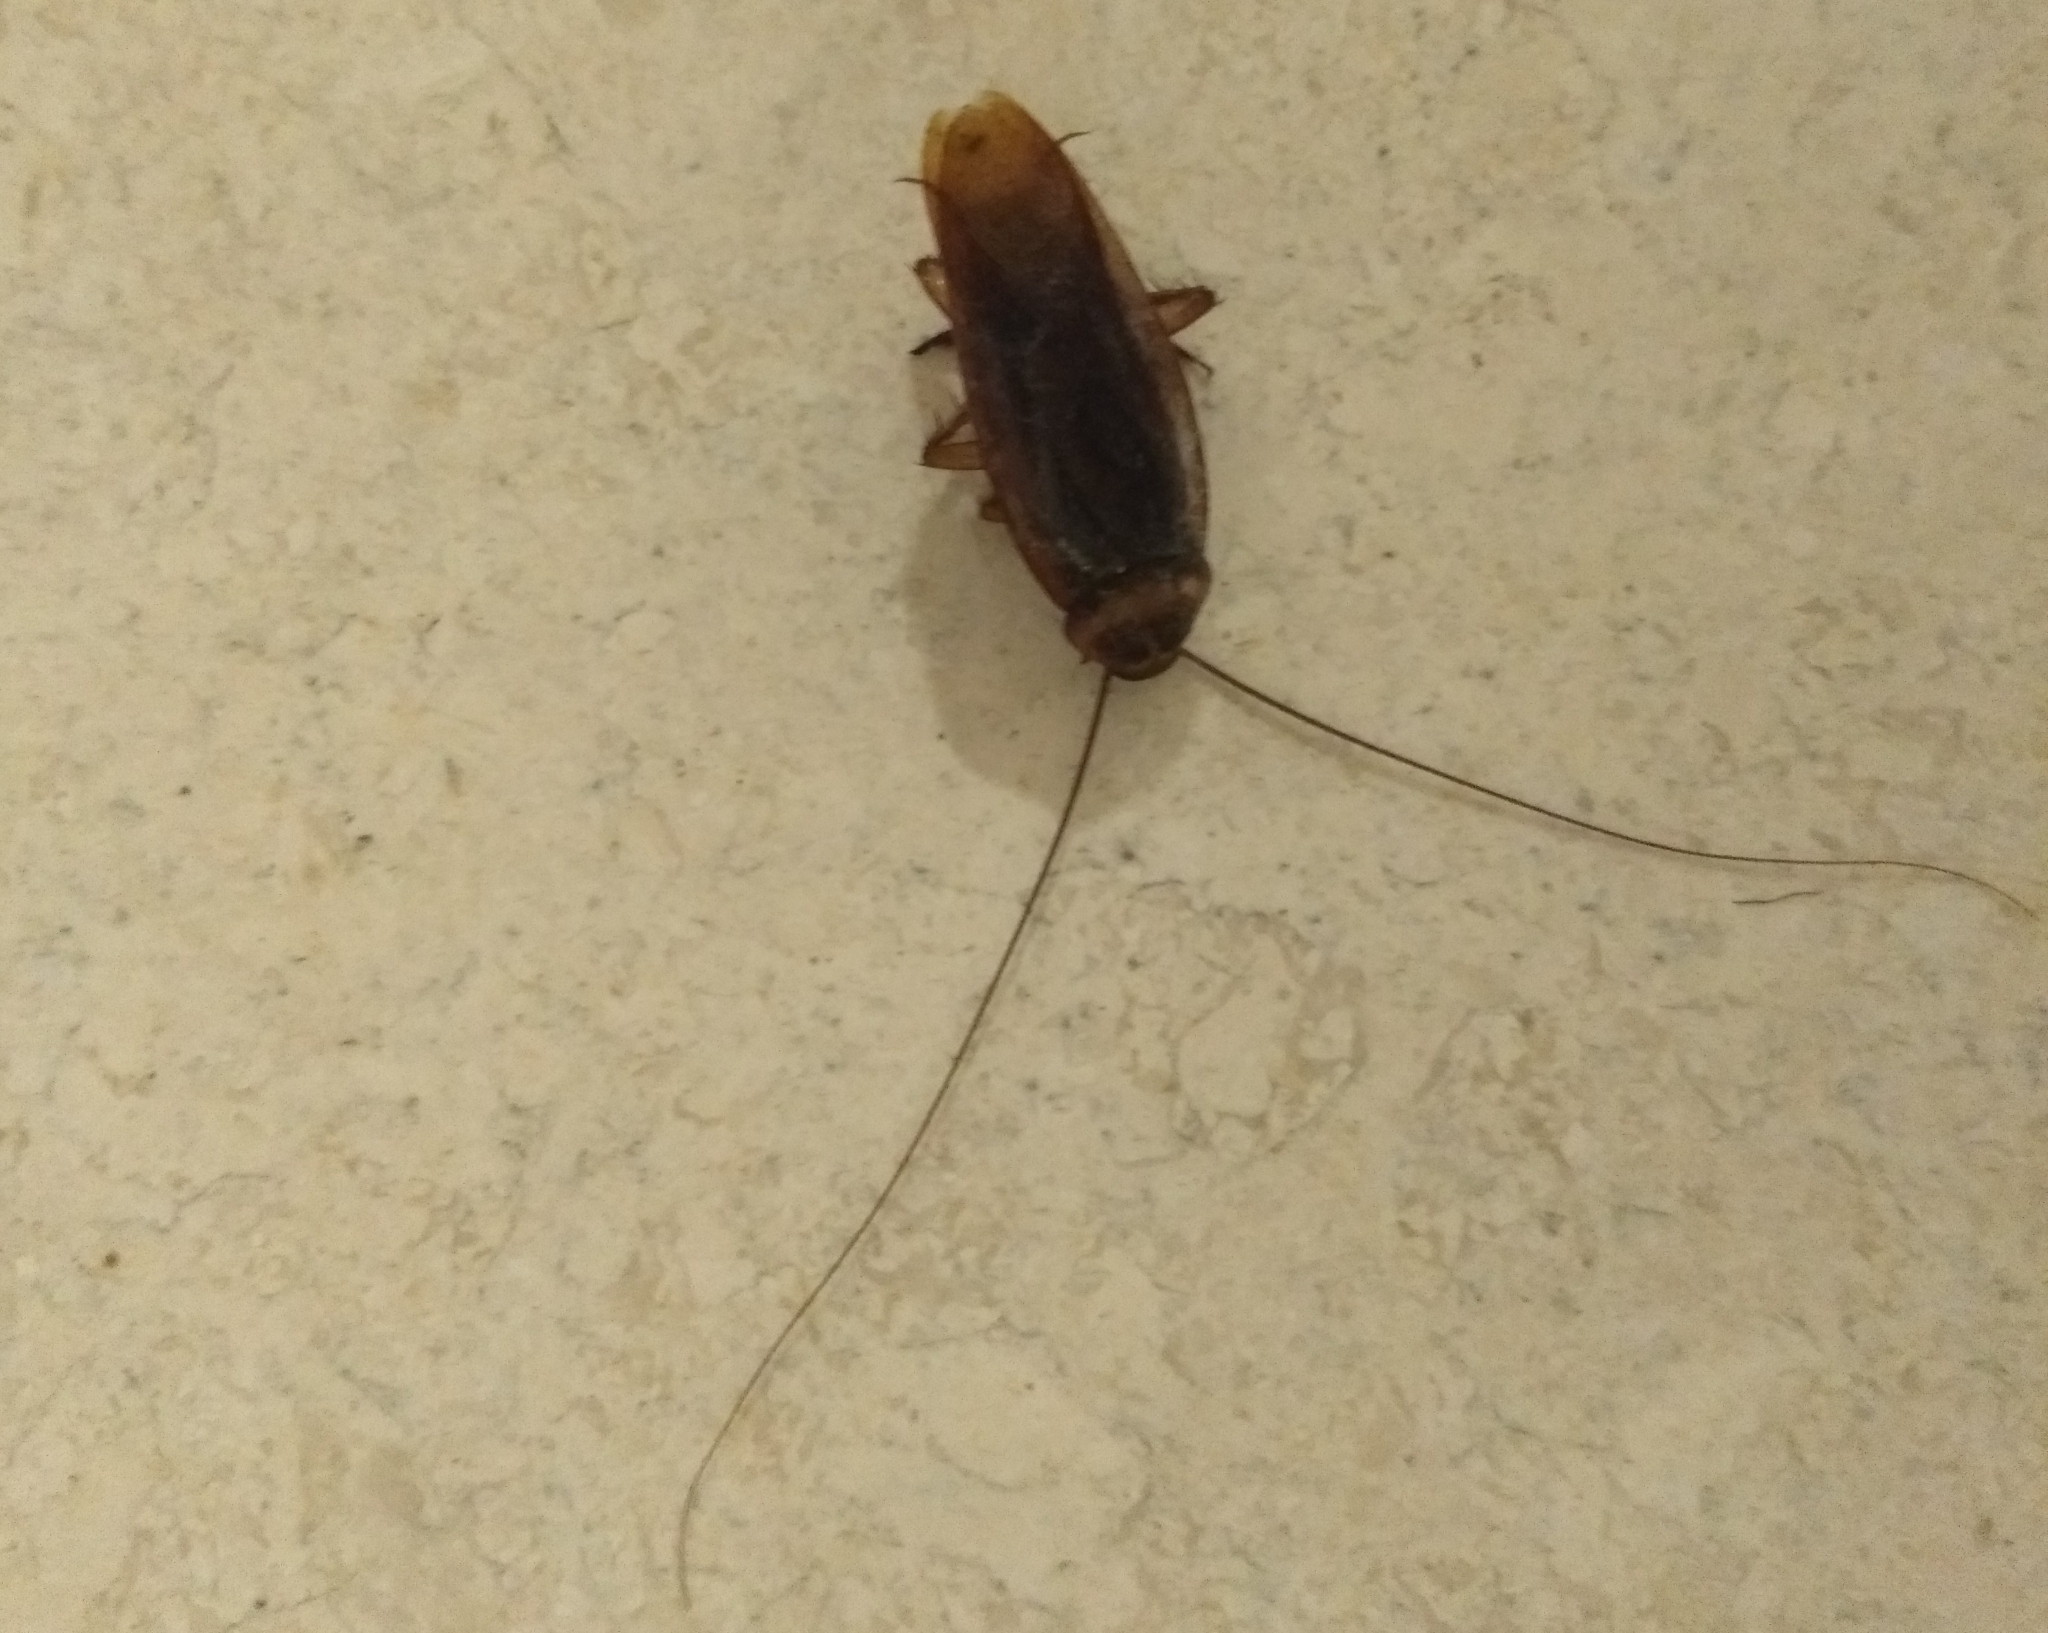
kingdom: Animalia
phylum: Arthropoda
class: Insecta
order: Blattodea
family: Blattidae
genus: Periplaneta
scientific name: Periplaneta americana
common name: American cockroach
